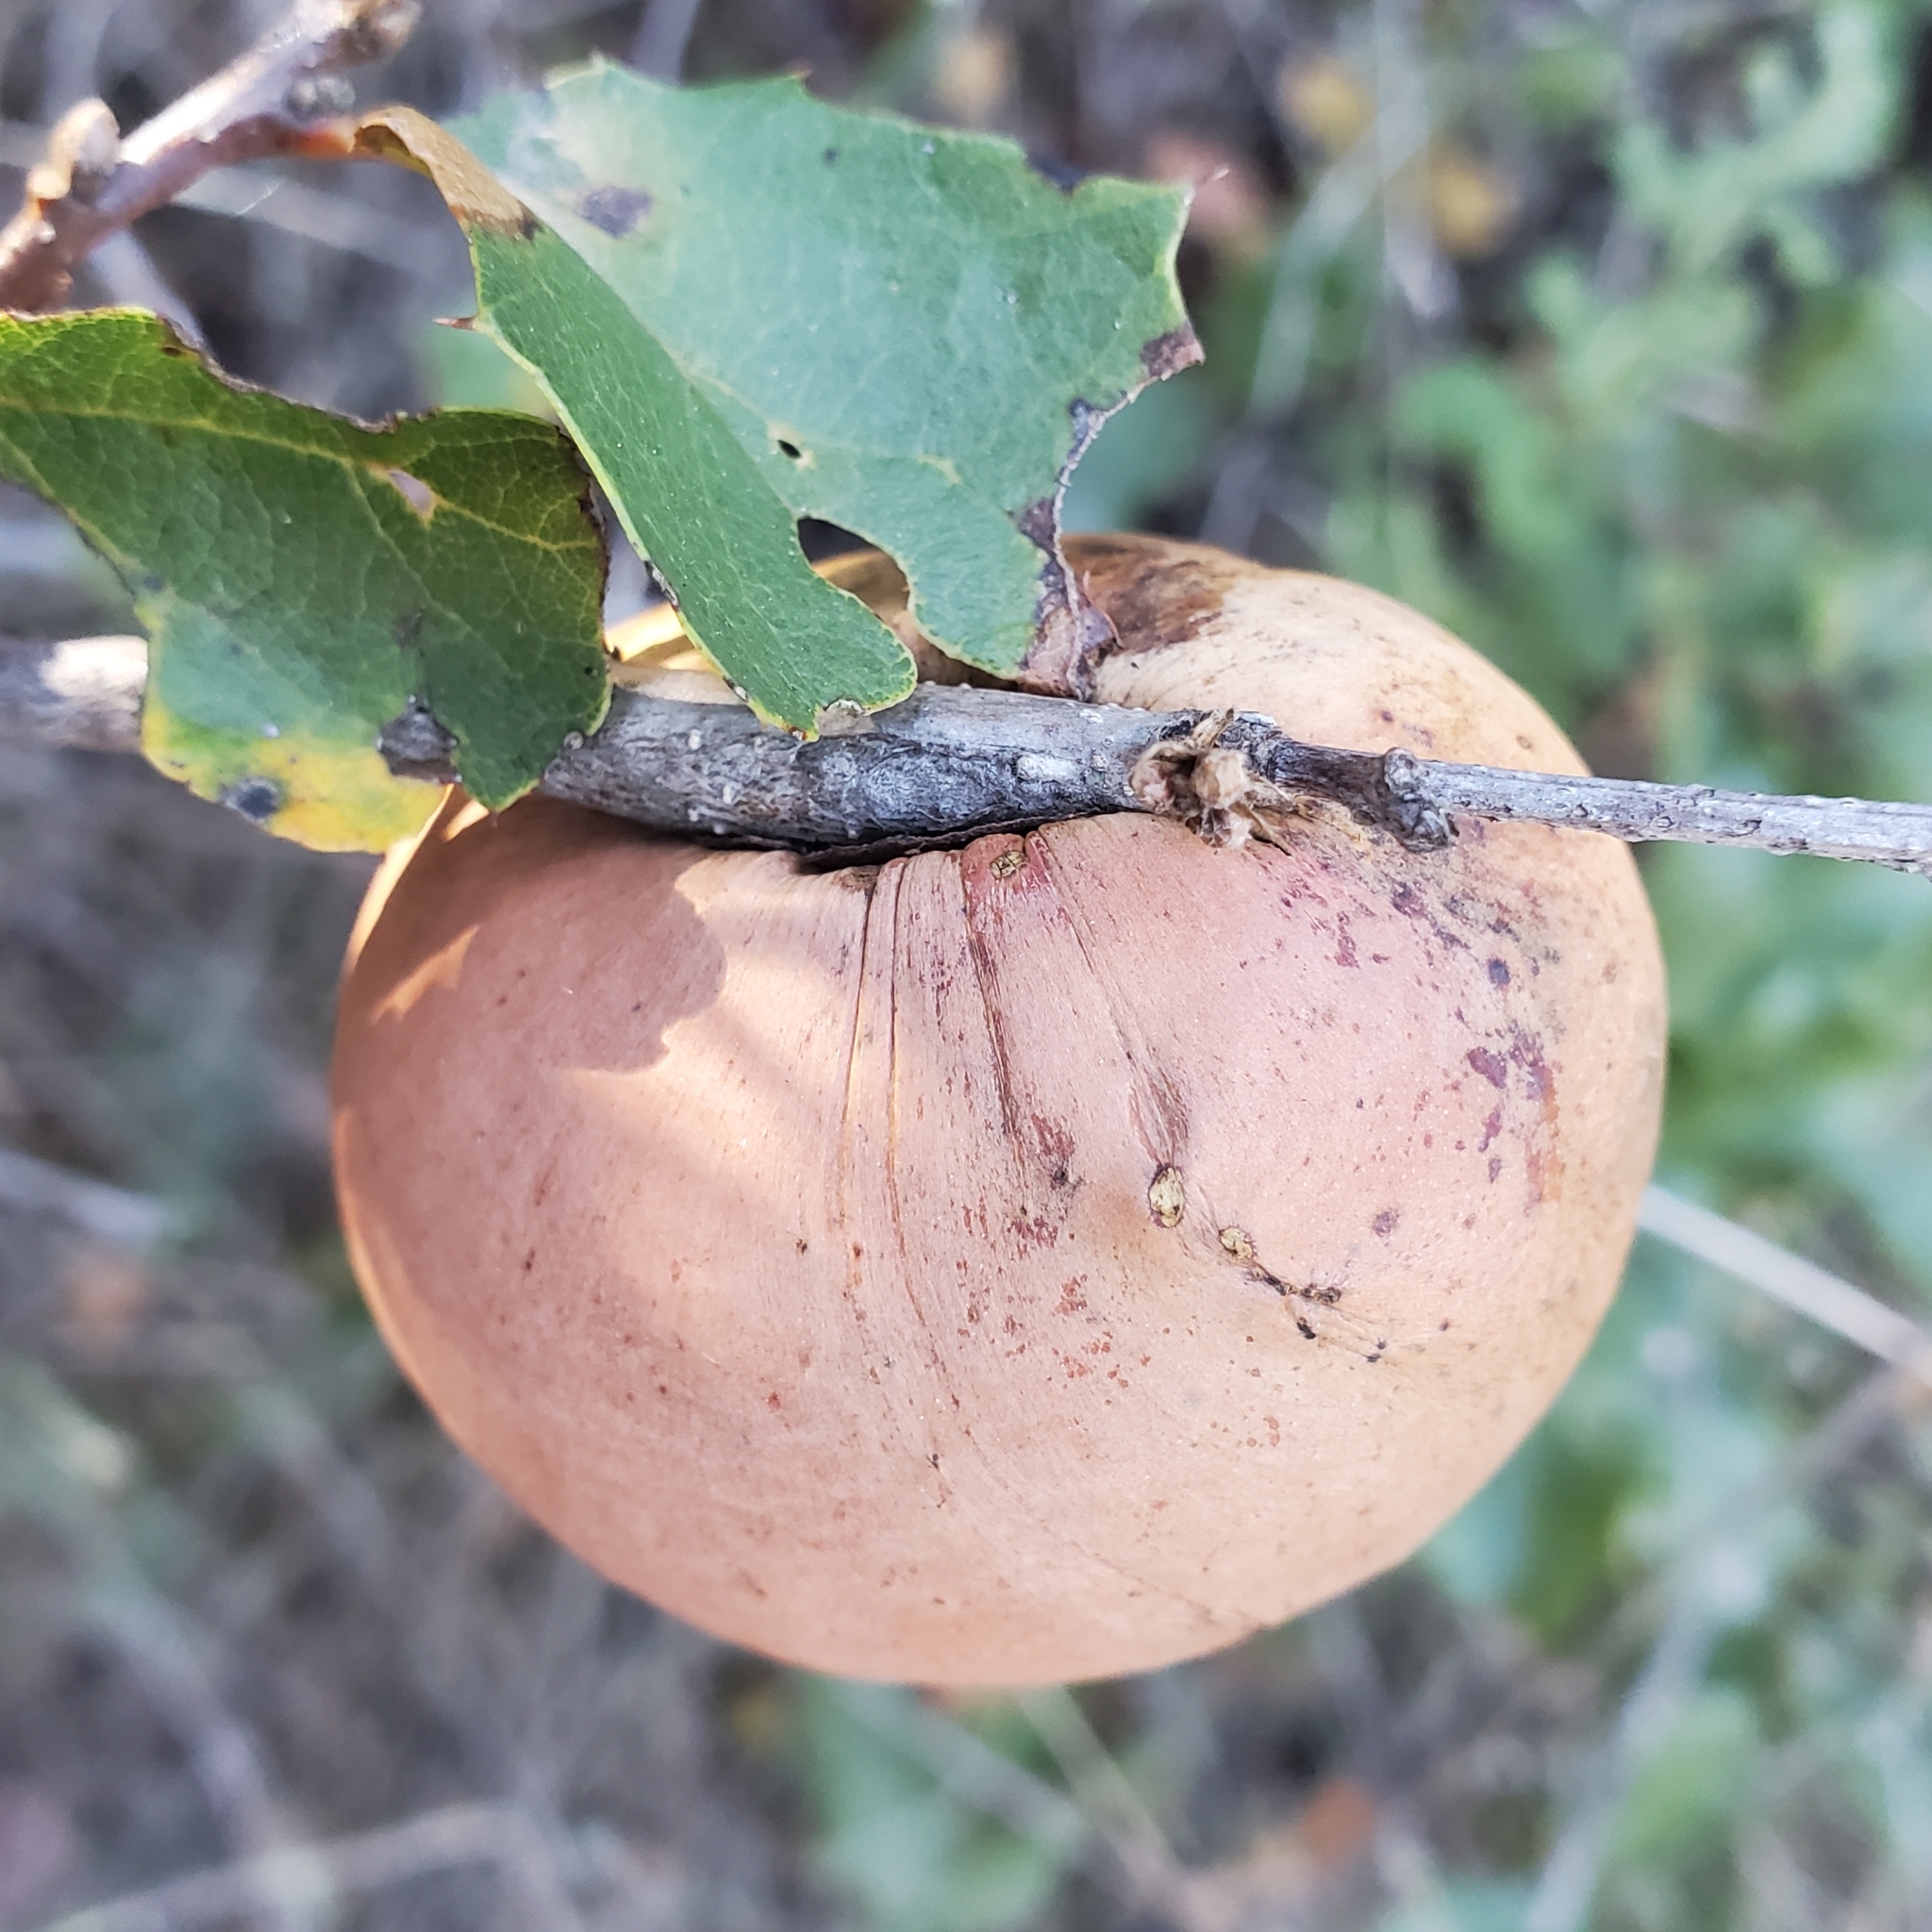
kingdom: Animalia
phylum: Arthropoda
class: Insecta
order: Hymenoptera
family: Cynipidae
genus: Andricus
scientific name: Andricus quercuscalifornicus
